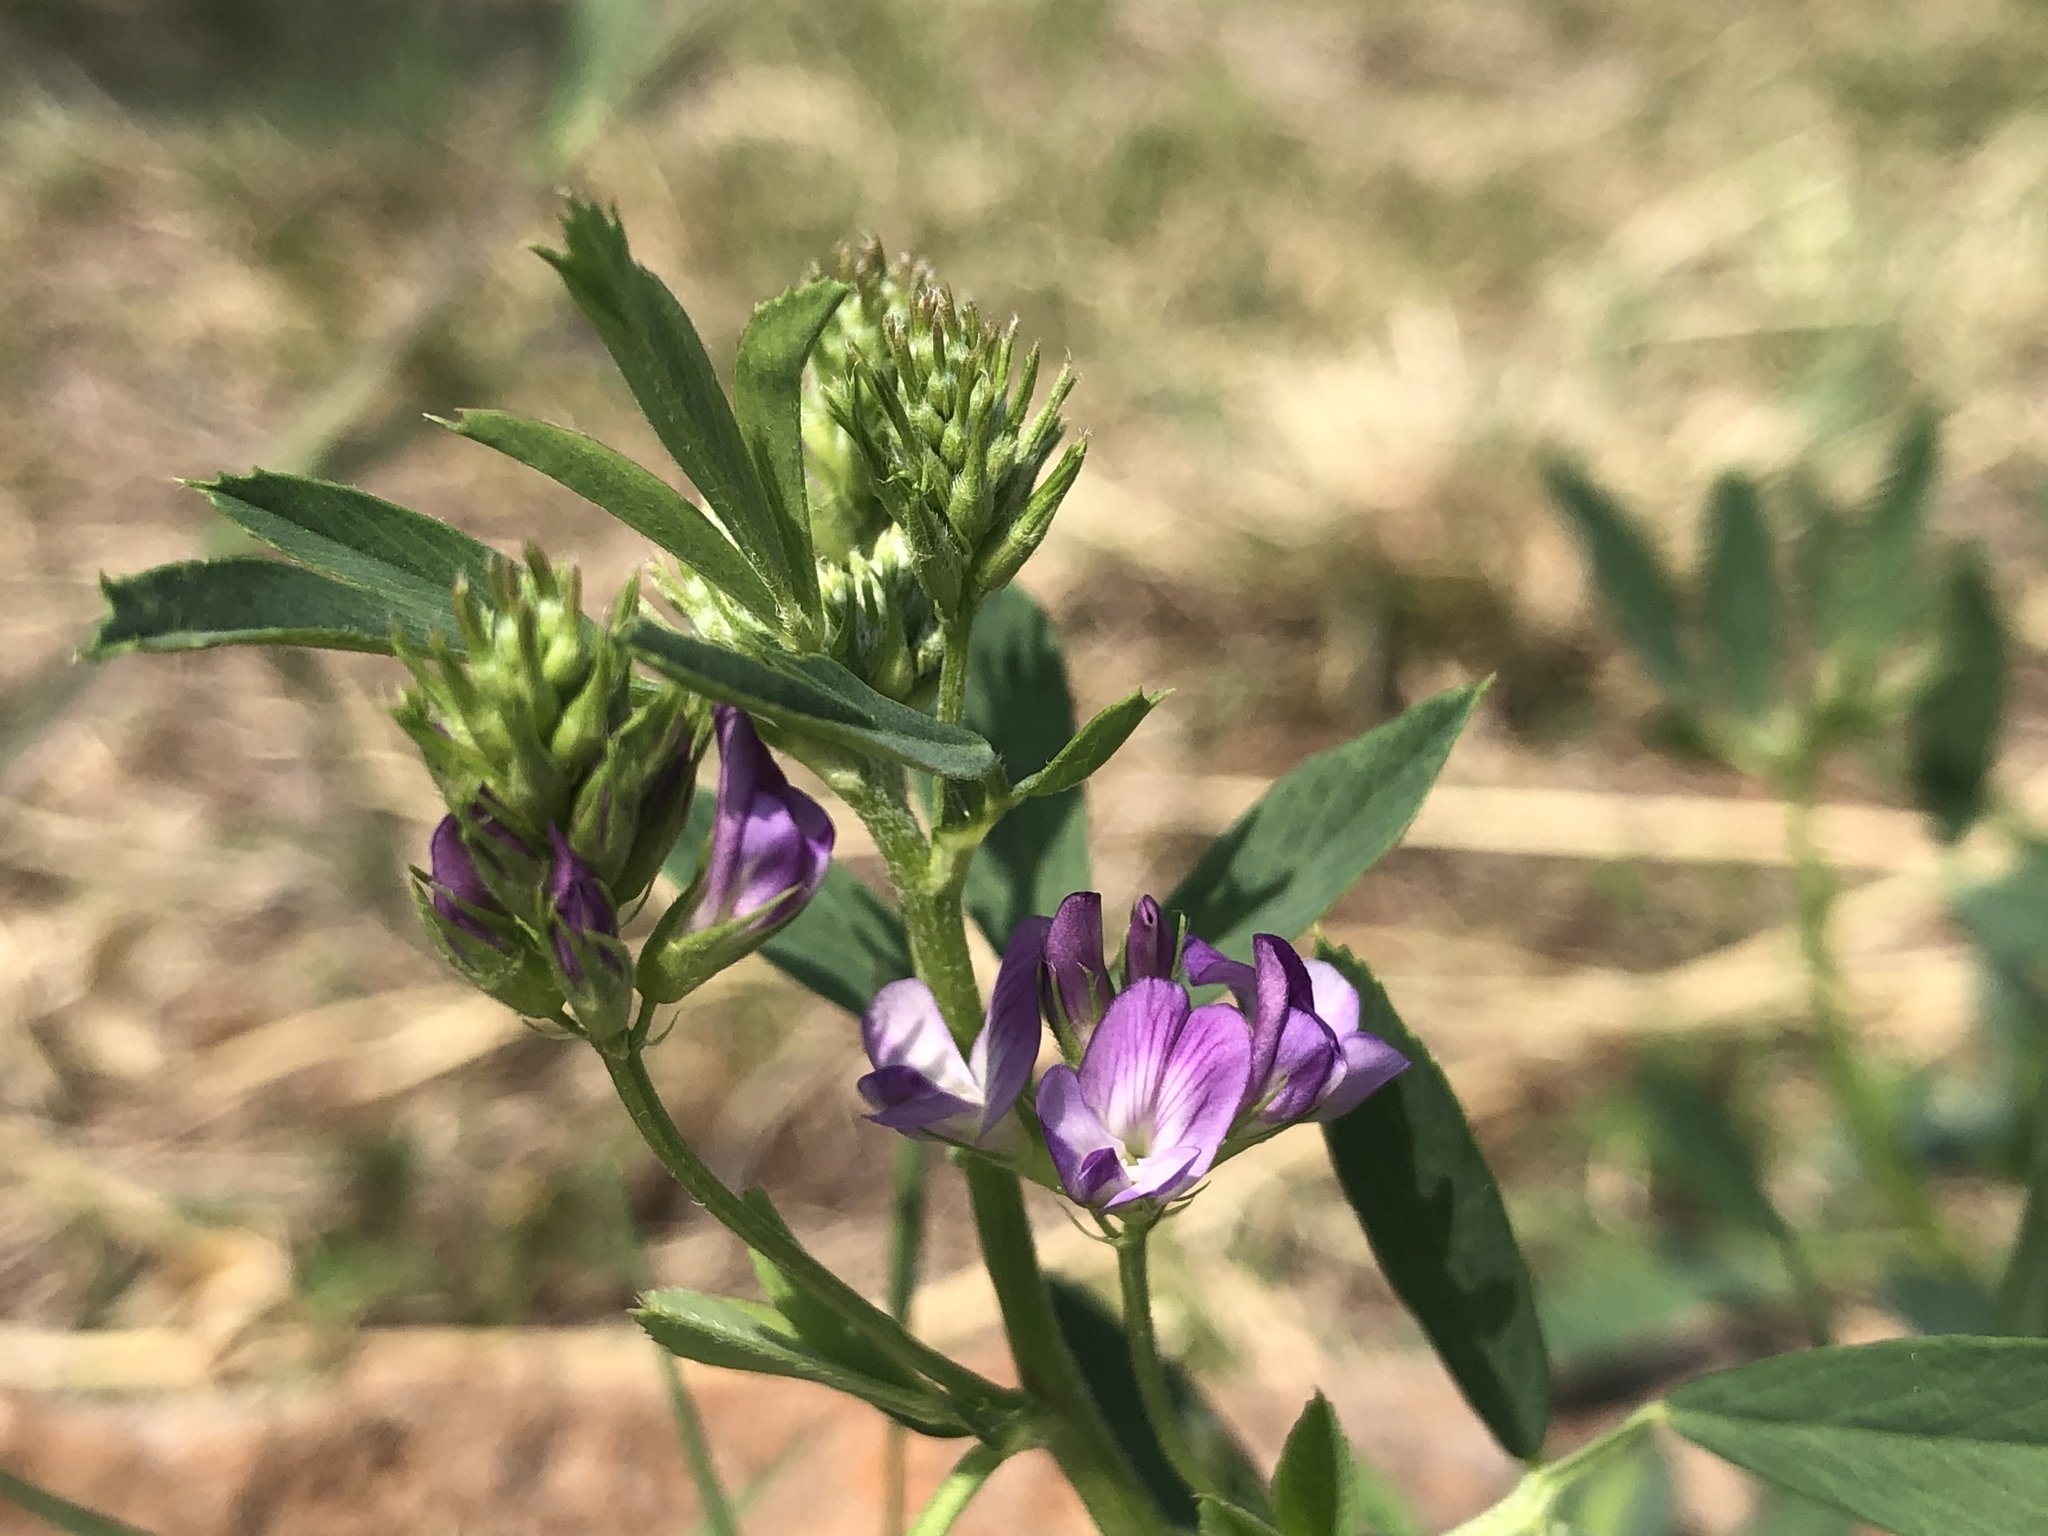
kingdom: Plantae
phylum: Tracheophyta
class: Magnoliopsida
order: Fabales
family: Fabaceae
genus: Medicago
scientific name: Medicago sativa
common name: Alfalfa
